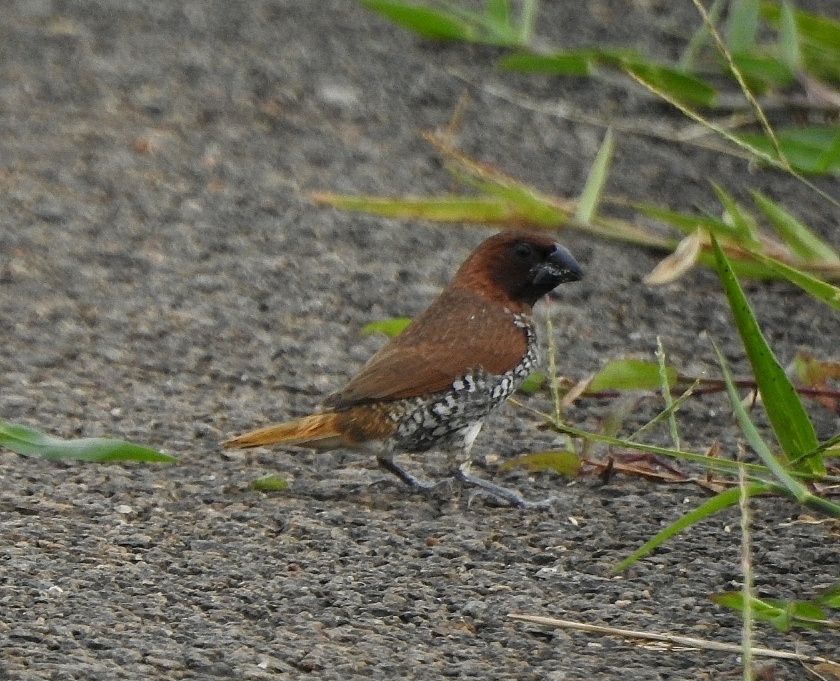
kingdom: Animalia
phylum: Chordata
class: Aves
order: Passeriformes
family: Estrildidae
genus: Lonchura
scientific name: Lonchura punctulata
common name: Scaly-breasted munia
